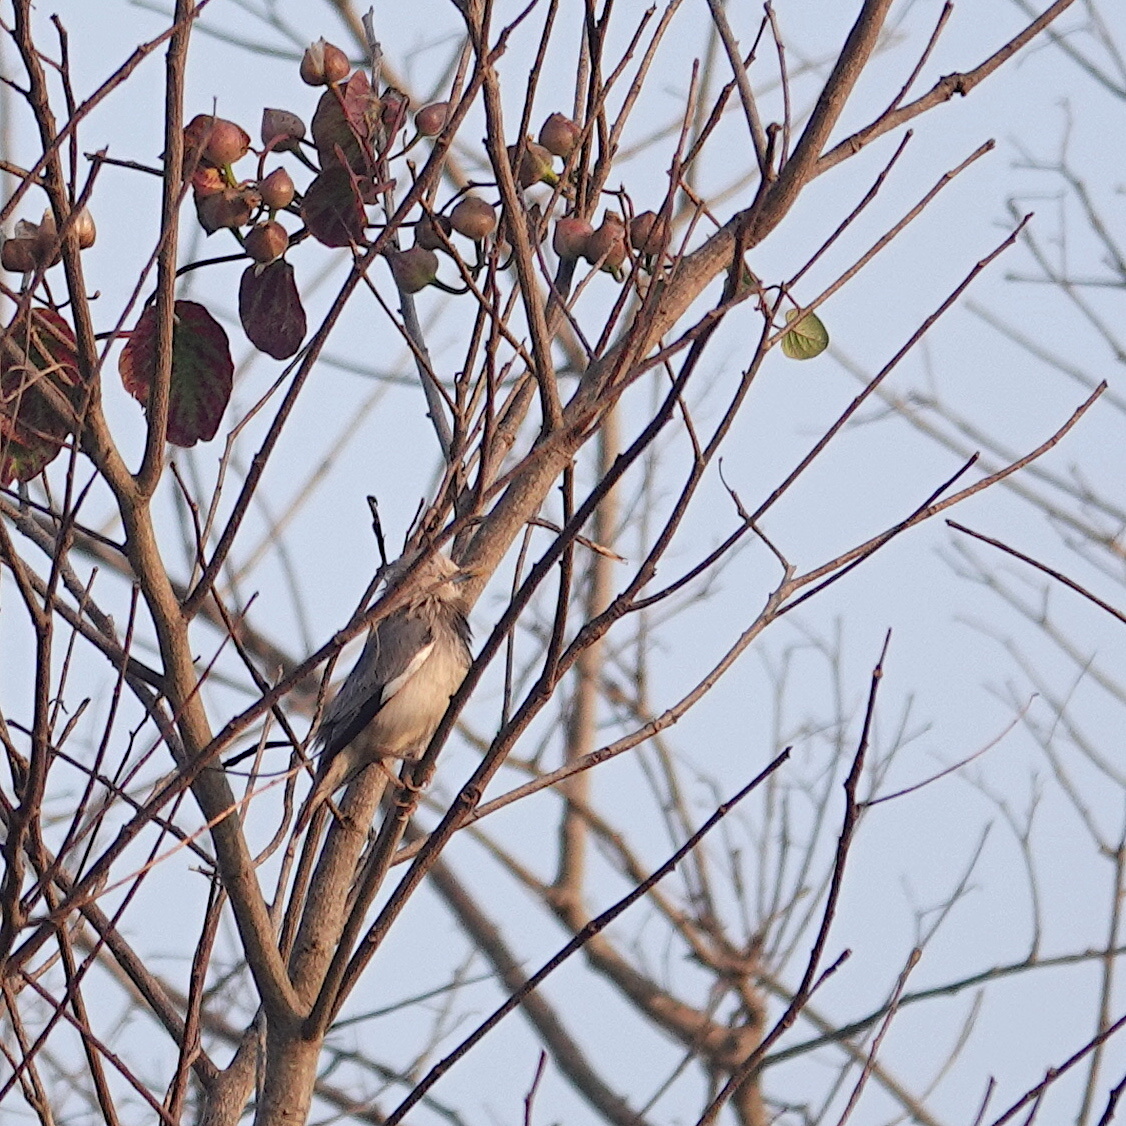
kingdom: Animalia
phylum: Chordata
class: Aves
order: Passeriformes
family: Sturnidae
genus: Sturnia
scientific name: Sturnia malabarica
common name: Chestnut-tailed starling
